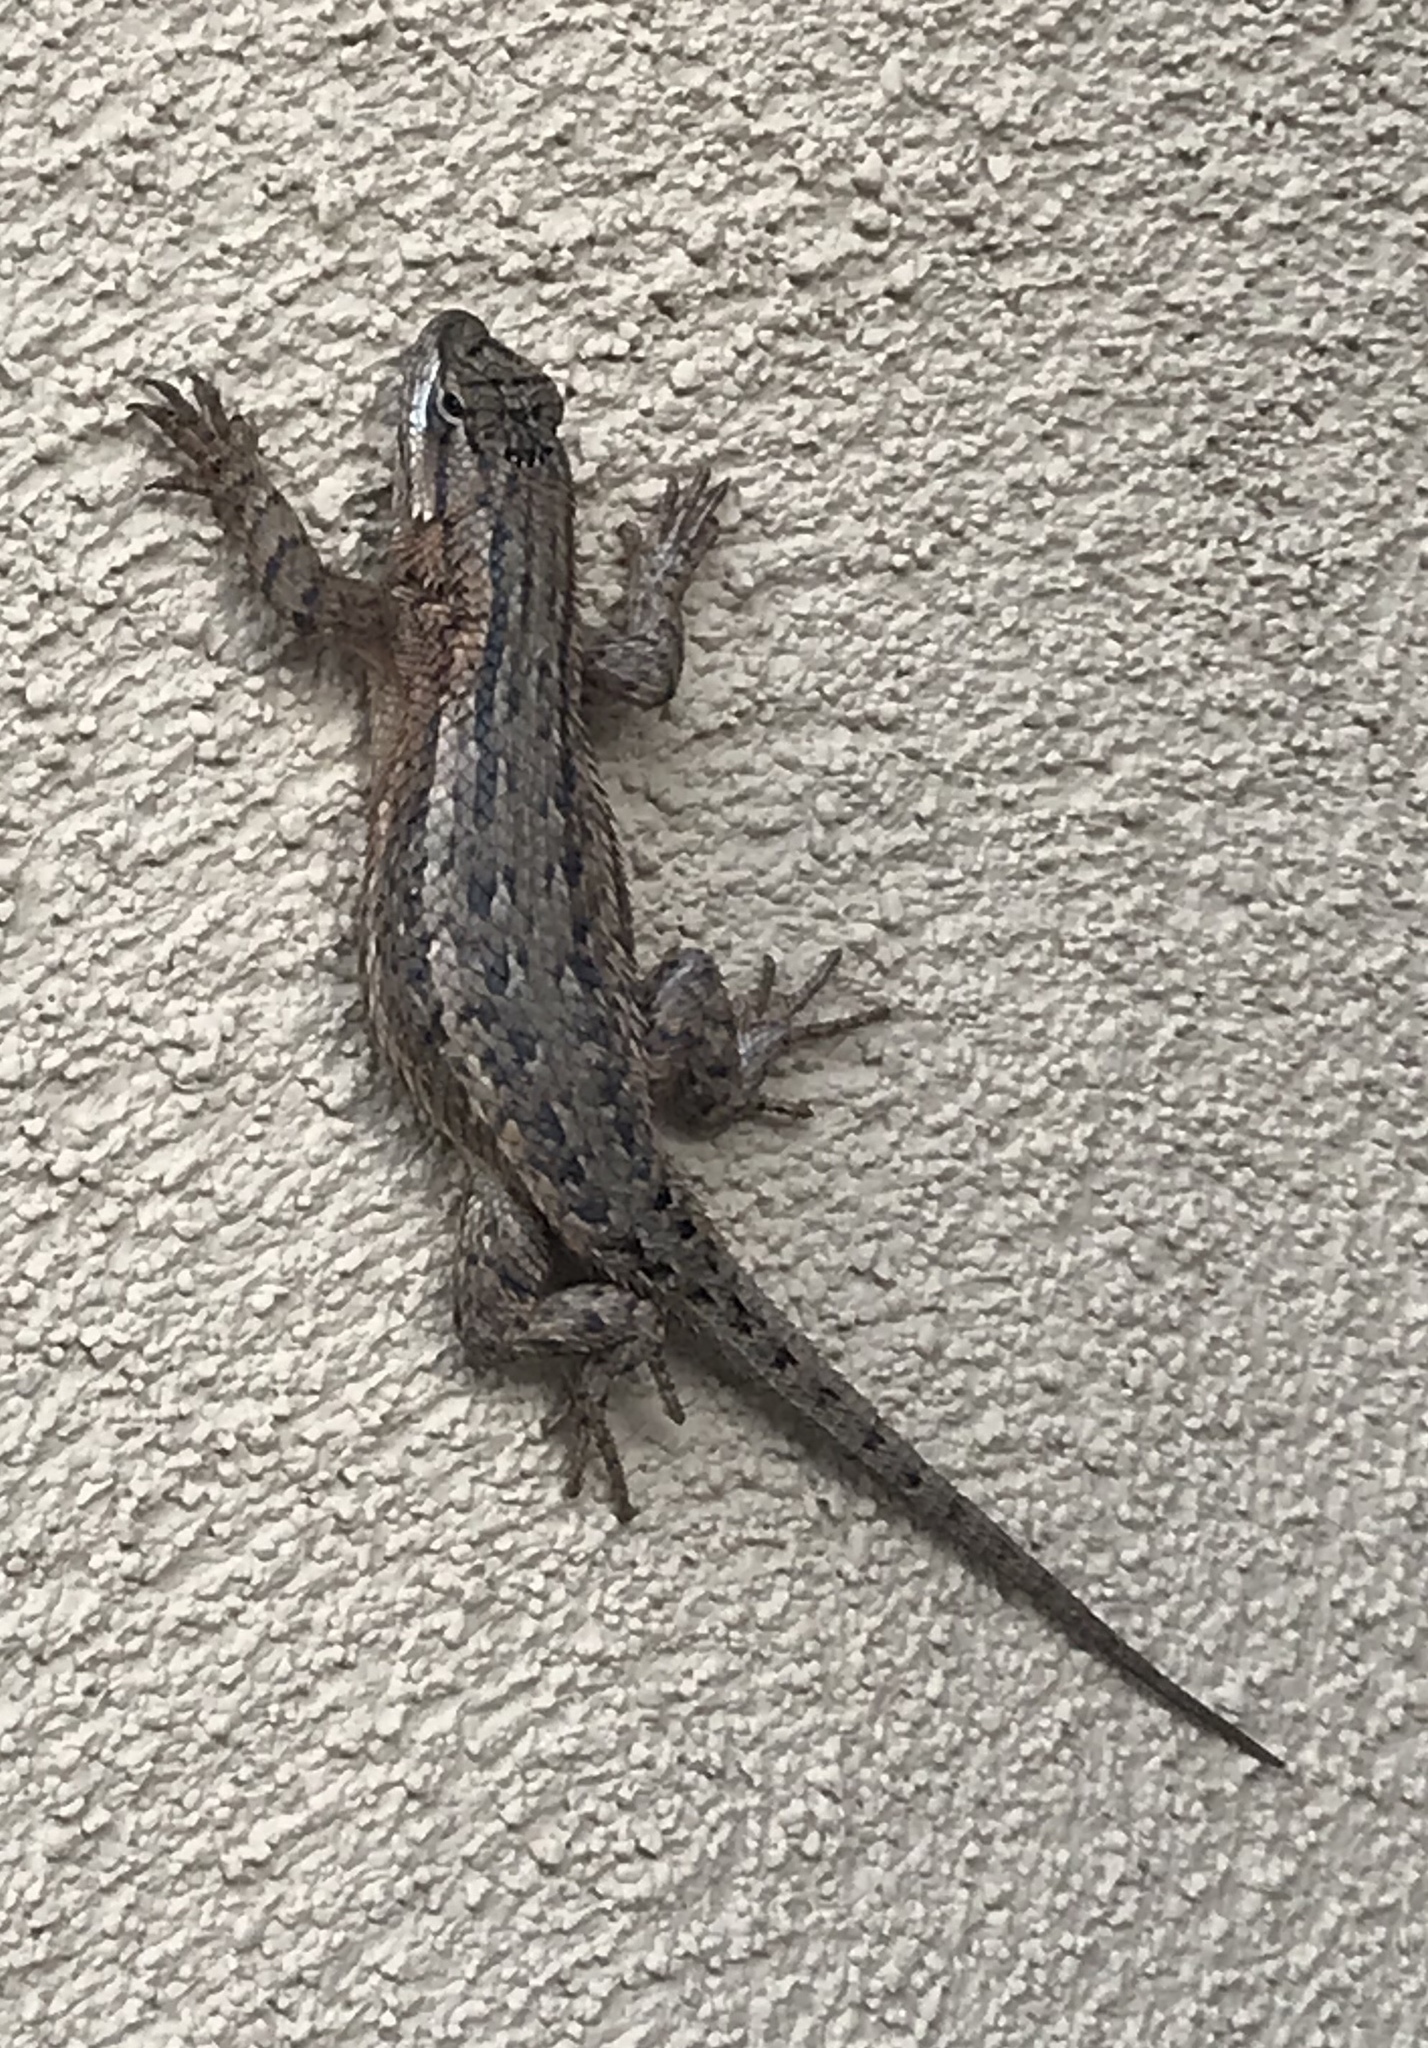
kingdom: Animalia
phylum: Chordata
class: Squamata
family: Phrynosomatidae
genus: Sceloporus
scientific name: Sceloporus cowlesi
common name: White sands prairie lizard
